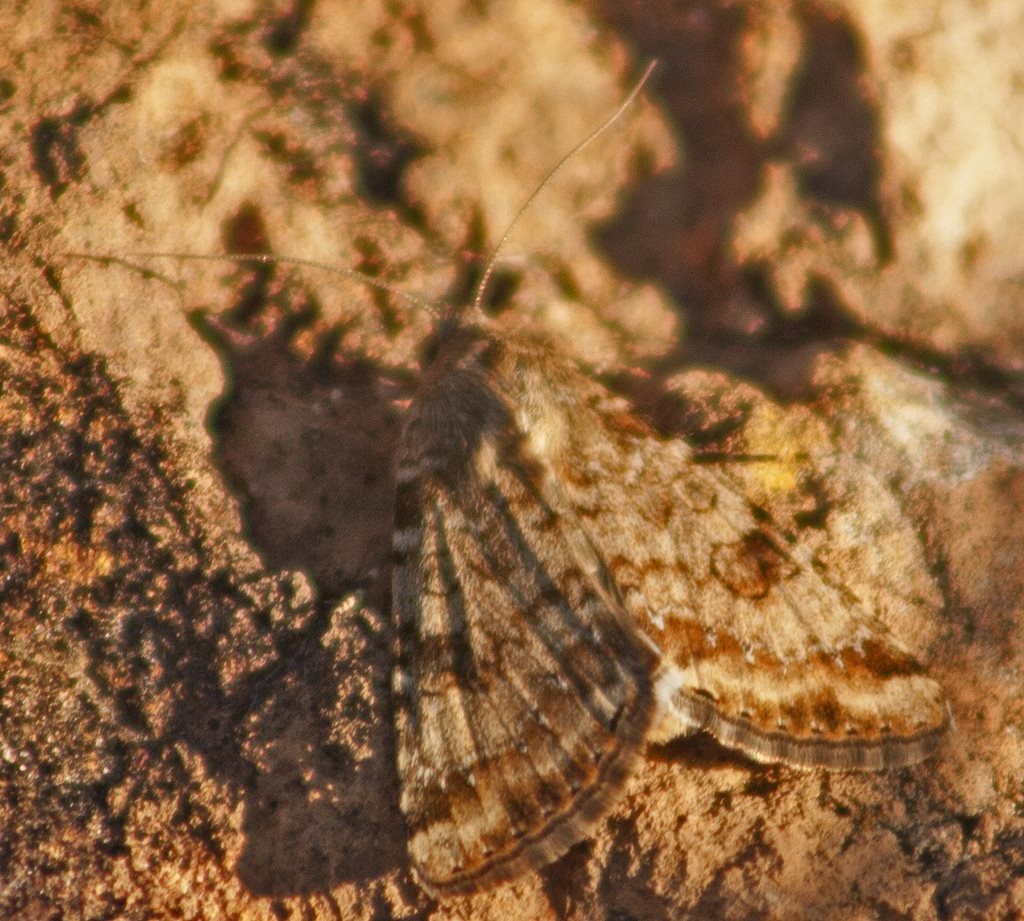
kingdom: Animalia
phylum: Arthropoda
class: Insecta
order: Lepidoptera
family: Noctuidae
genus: Heliothis
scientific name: Heliothis punctifera
